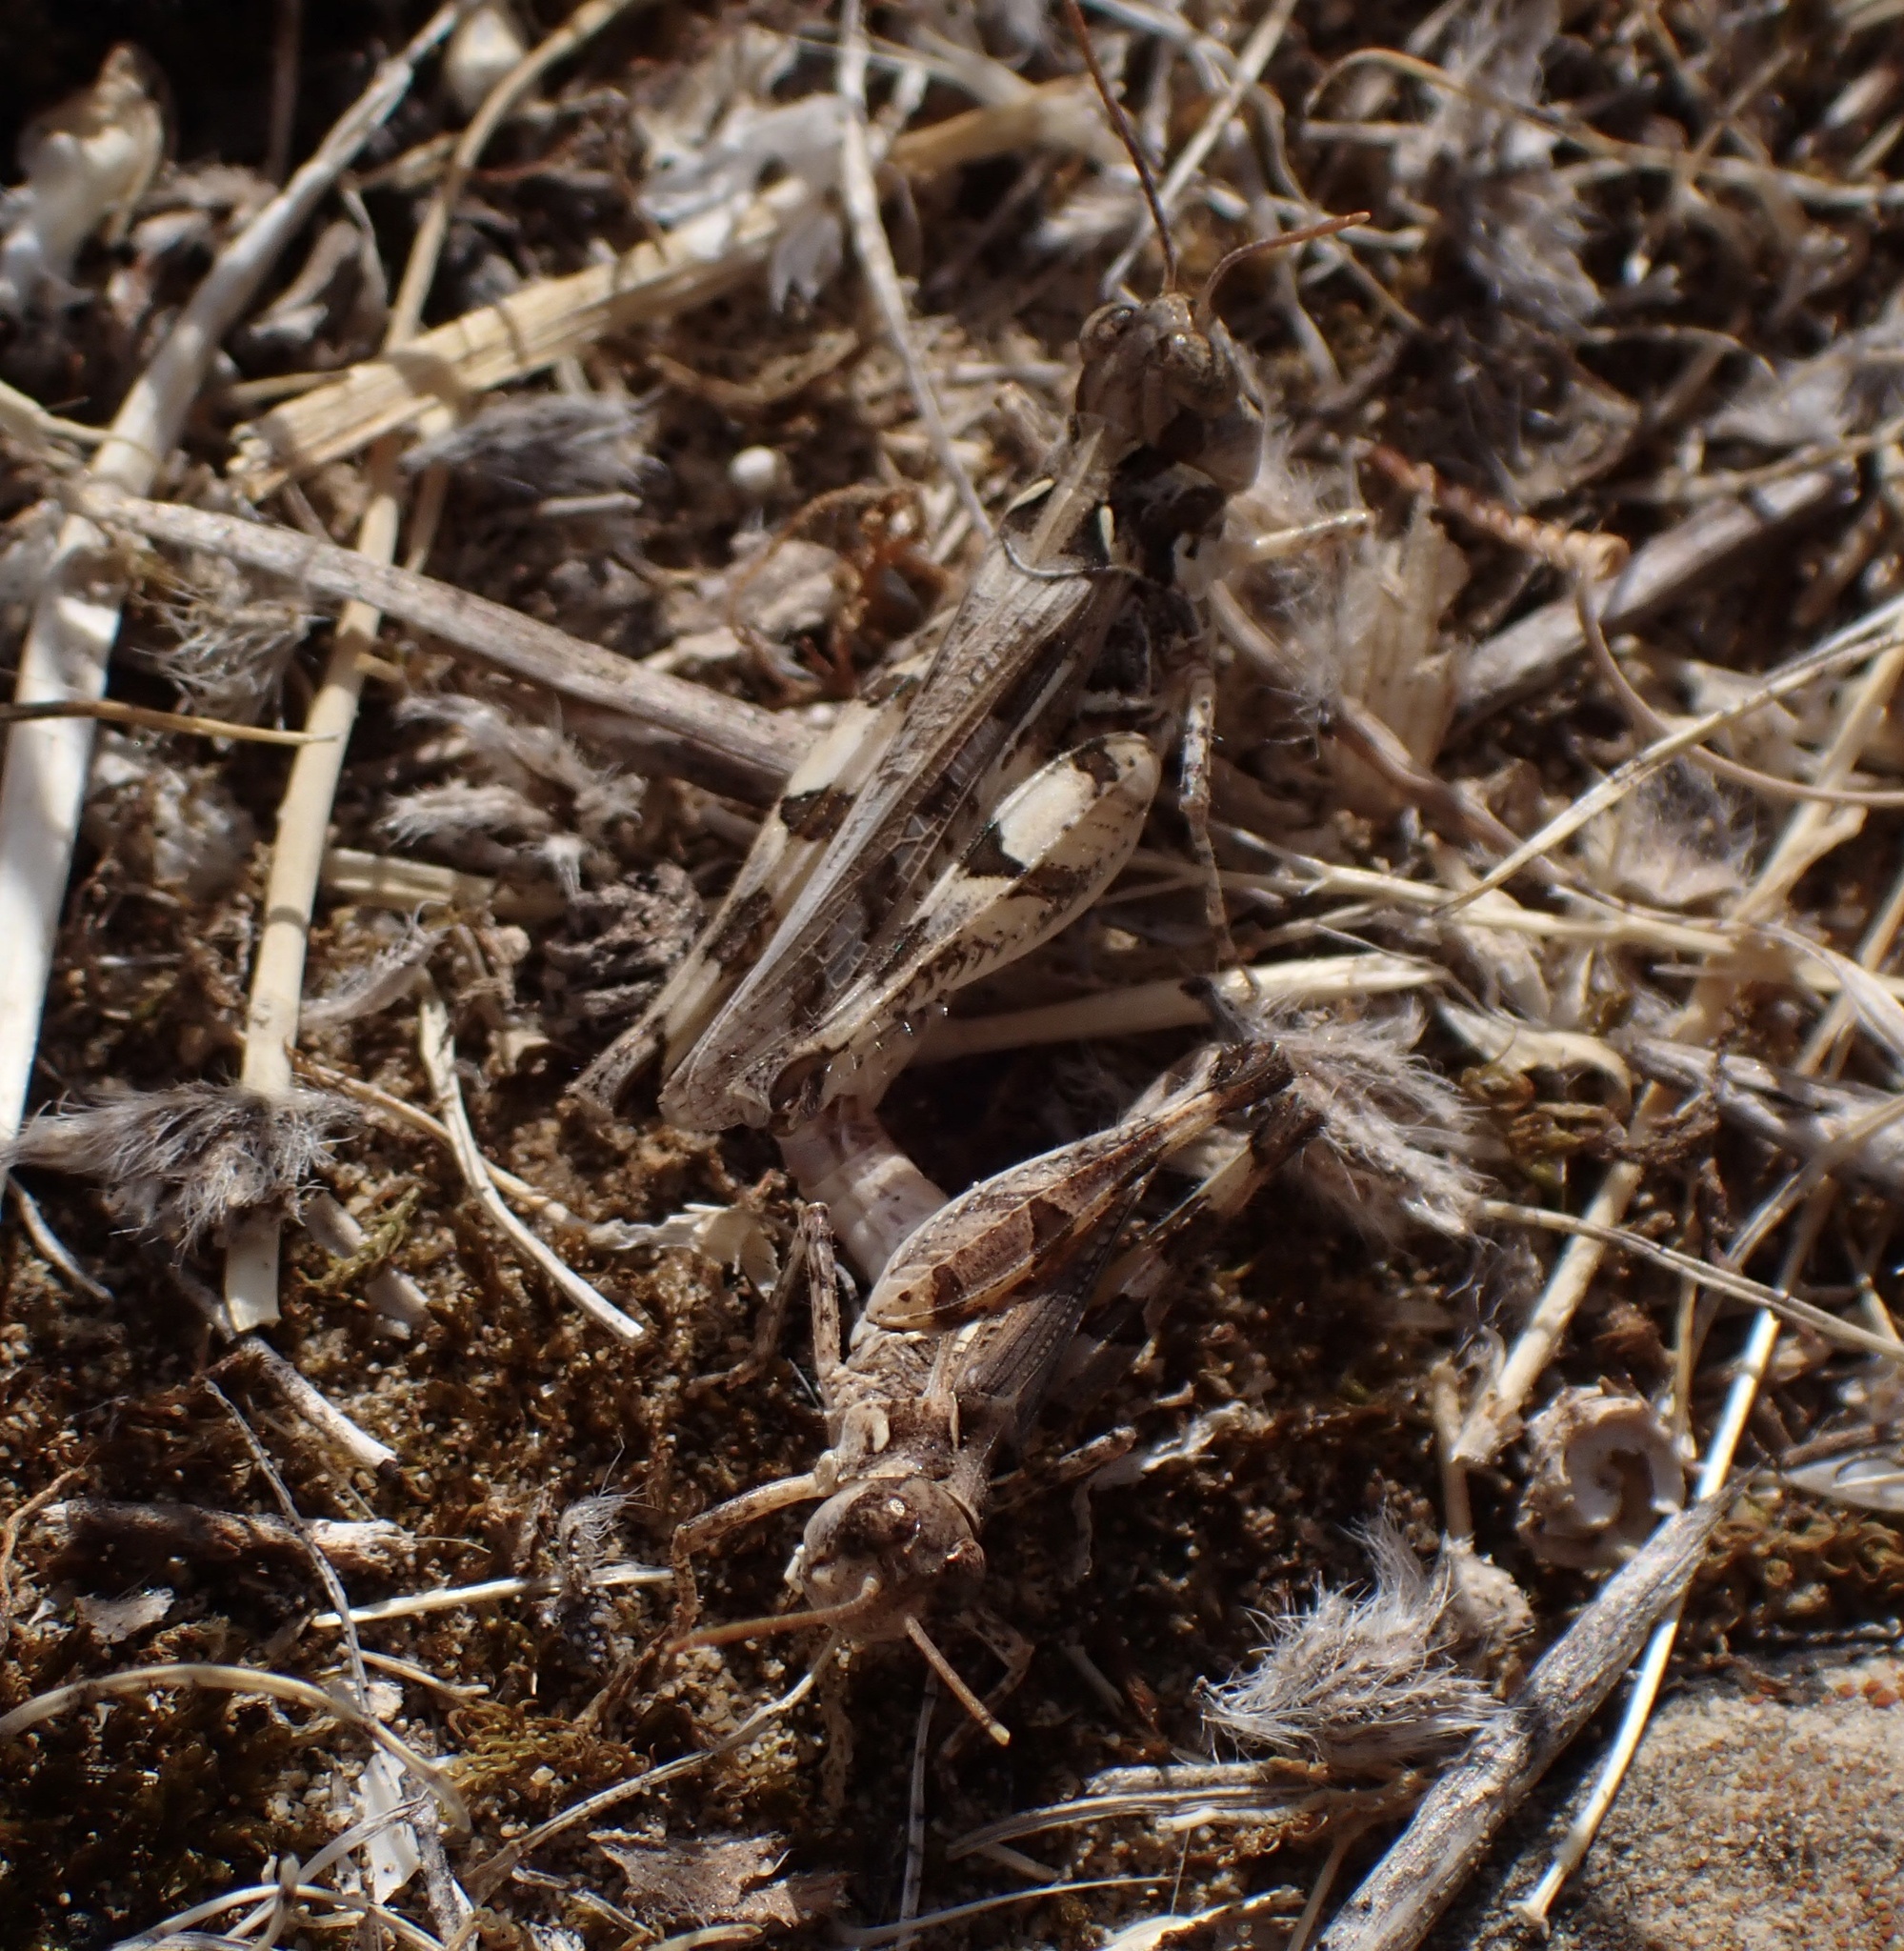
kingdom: Animalia
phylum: Arthropoda
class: Insecta
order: Orthoptera
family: Acrididae
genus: Dociostaurus
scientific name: Dociostaurus genei
